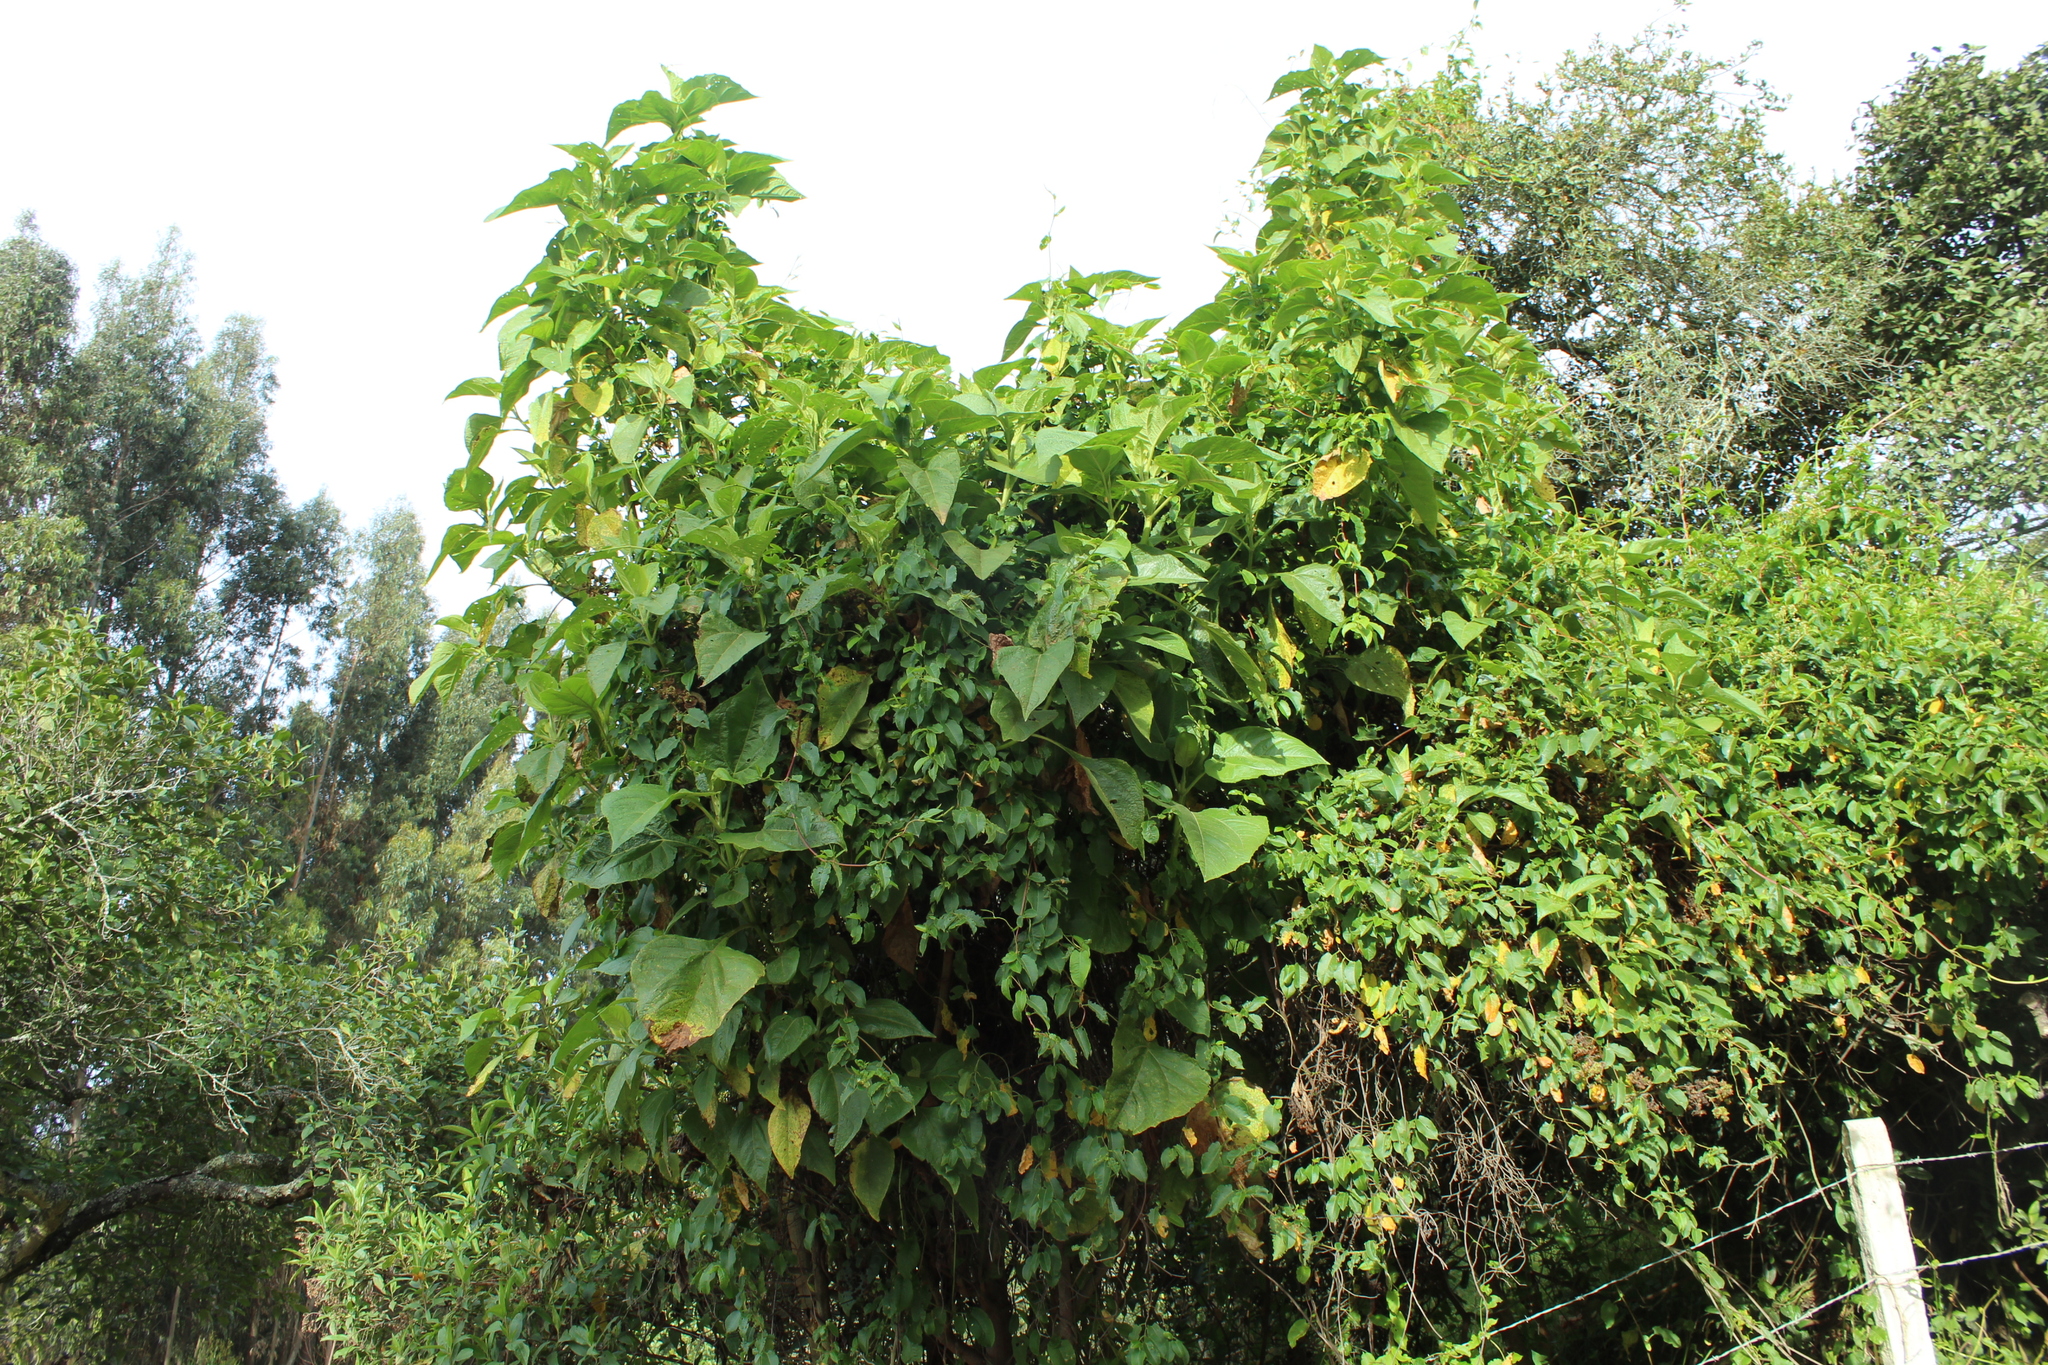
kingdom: Plantae
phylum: Tracheophyta
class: Magnoliopsida
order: Asterales
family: Asteraceae
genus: Smallanthus
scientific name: Smallanthus pyramidalis
